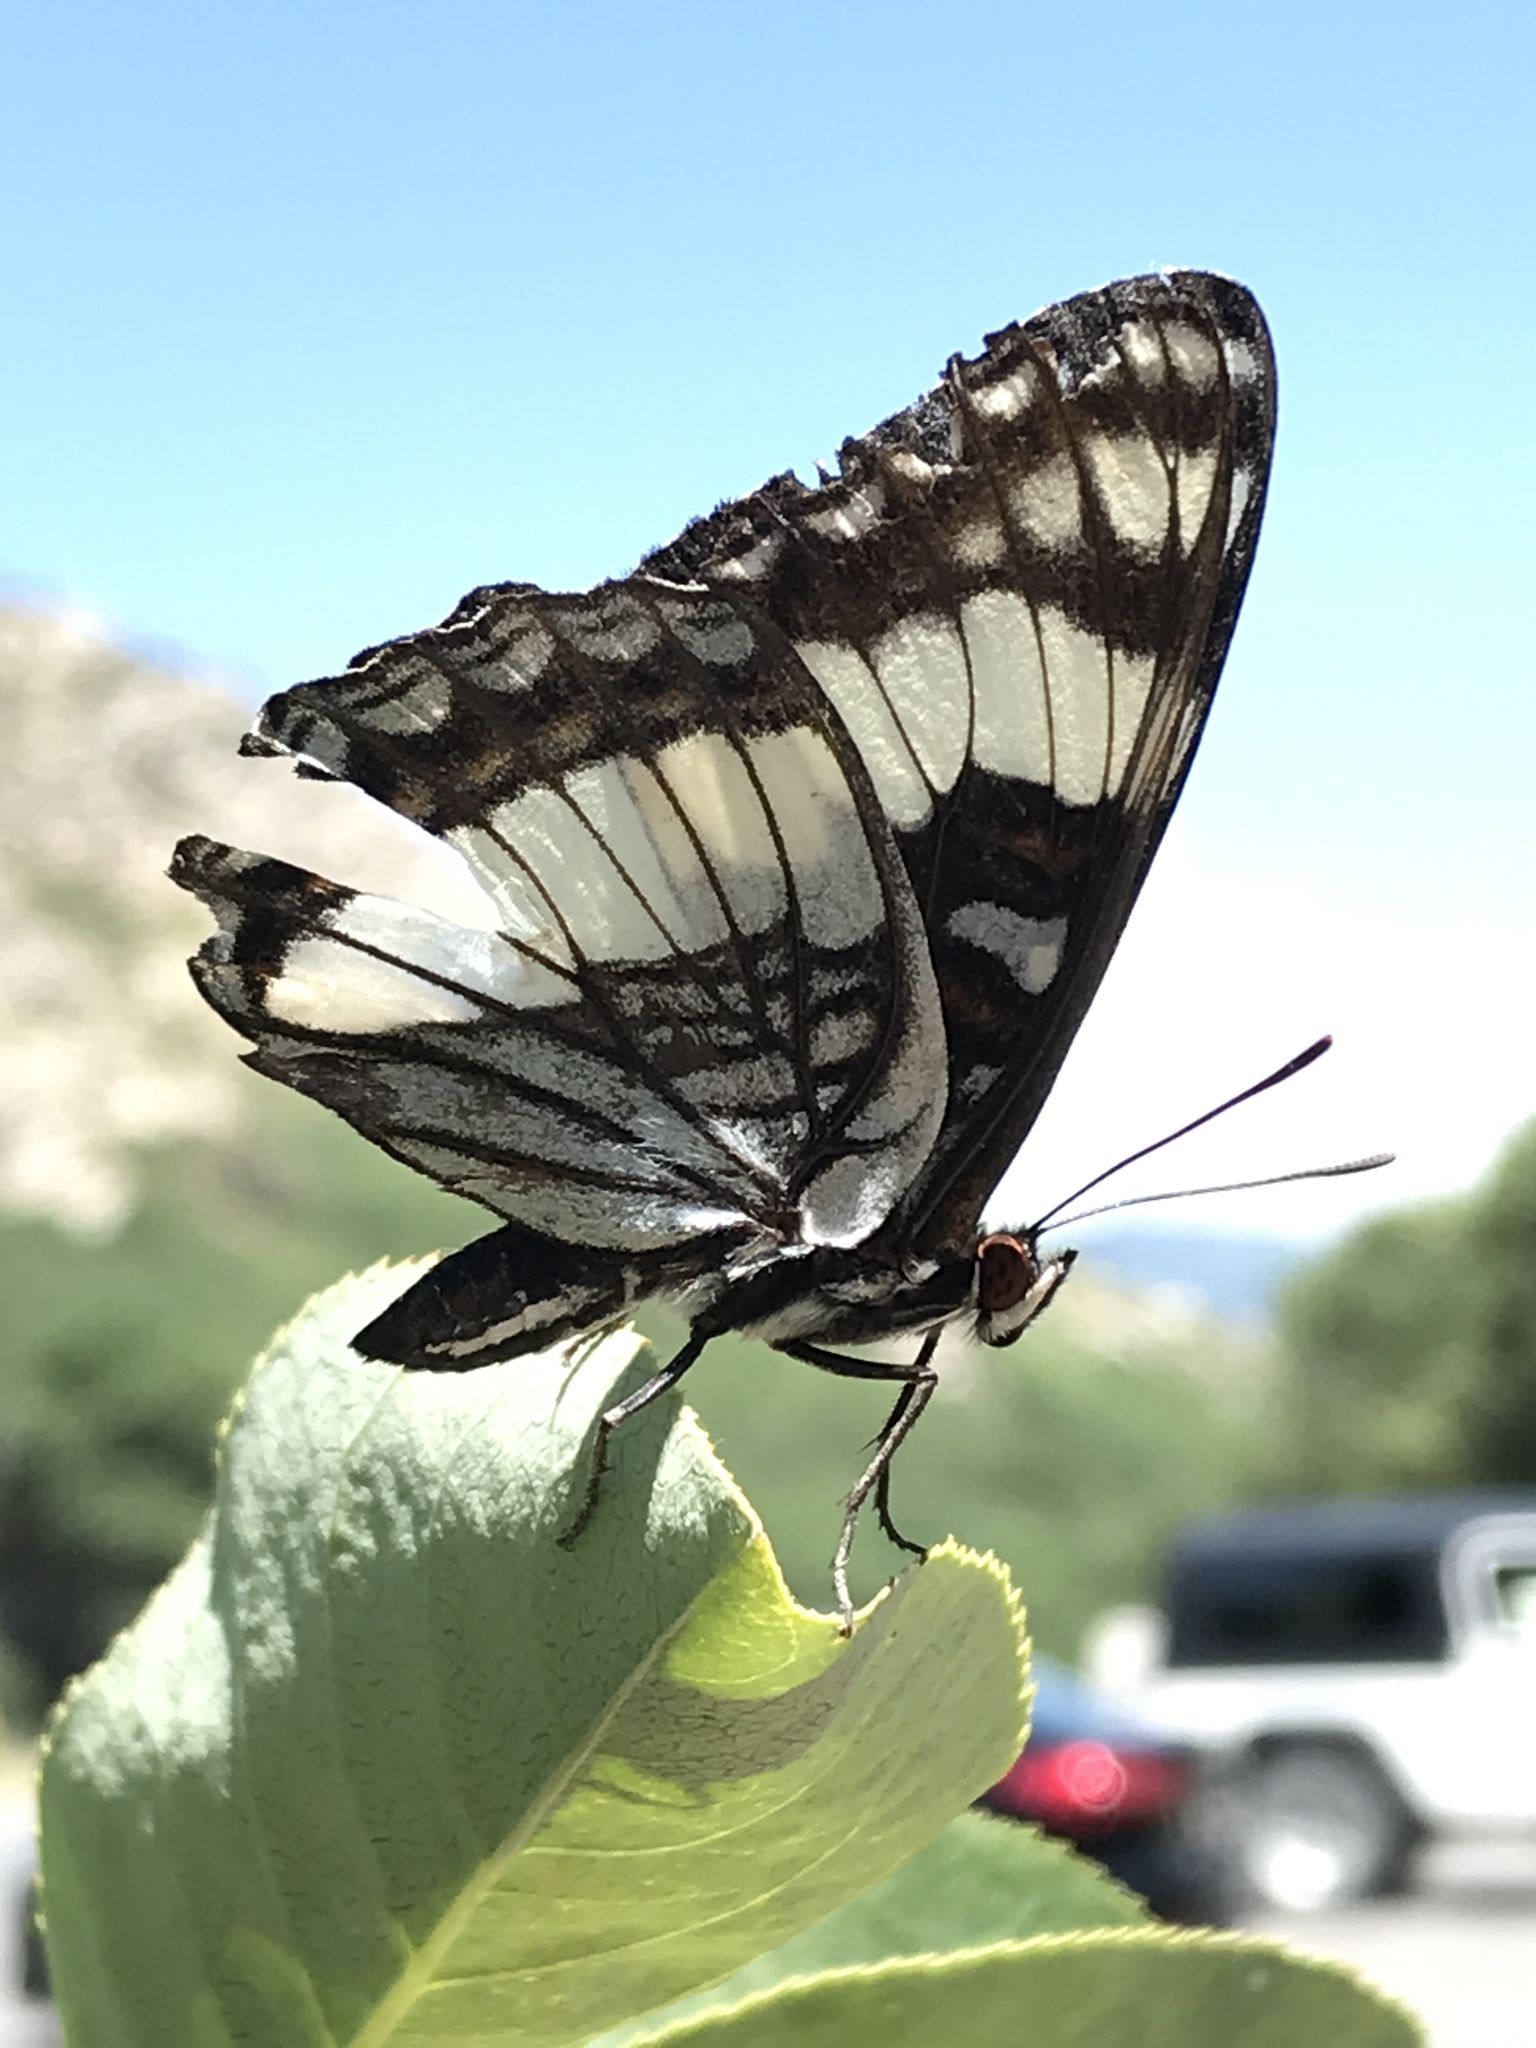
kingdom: Animalia
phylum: Arthropoda
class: Insecta
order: Lepidoptera
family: Nymphalidae
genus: Limenitis
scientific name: Limenitis weidemeyerii
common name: Weidemeyer's admiral
